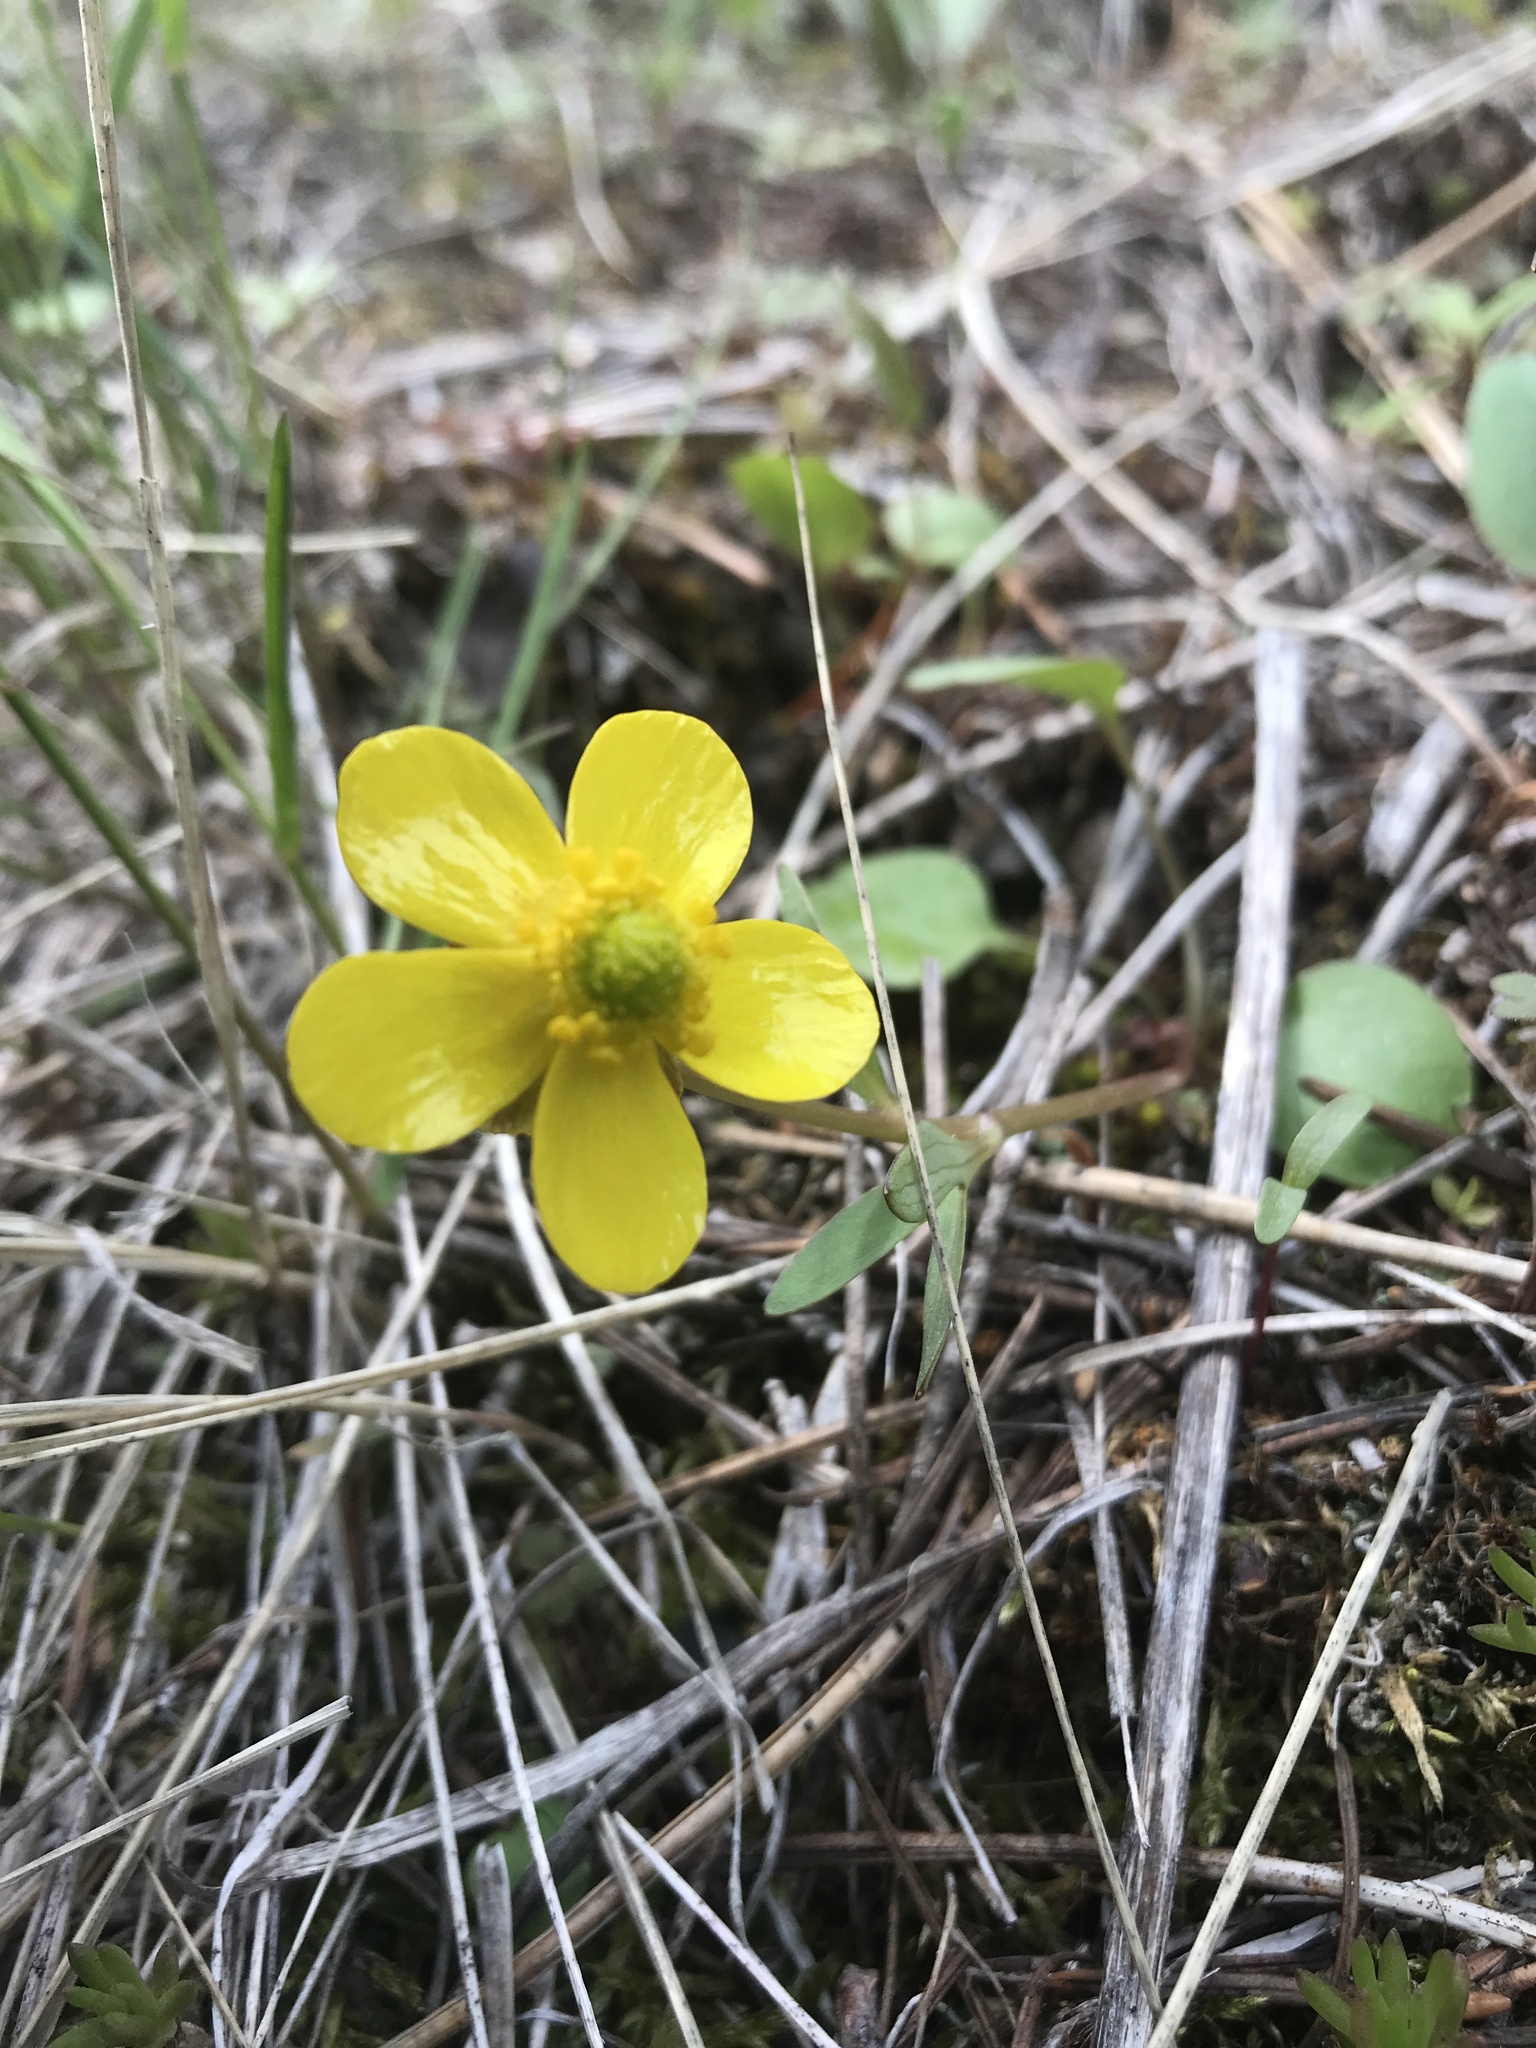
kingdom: Plantae
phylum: Tracheophyta
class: Magnoliopsida
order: Ranunculales
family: Ranunculaceae
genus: Ranunculus
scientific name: Ranunculus glaberrimus
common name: Sagebrush buttercup
